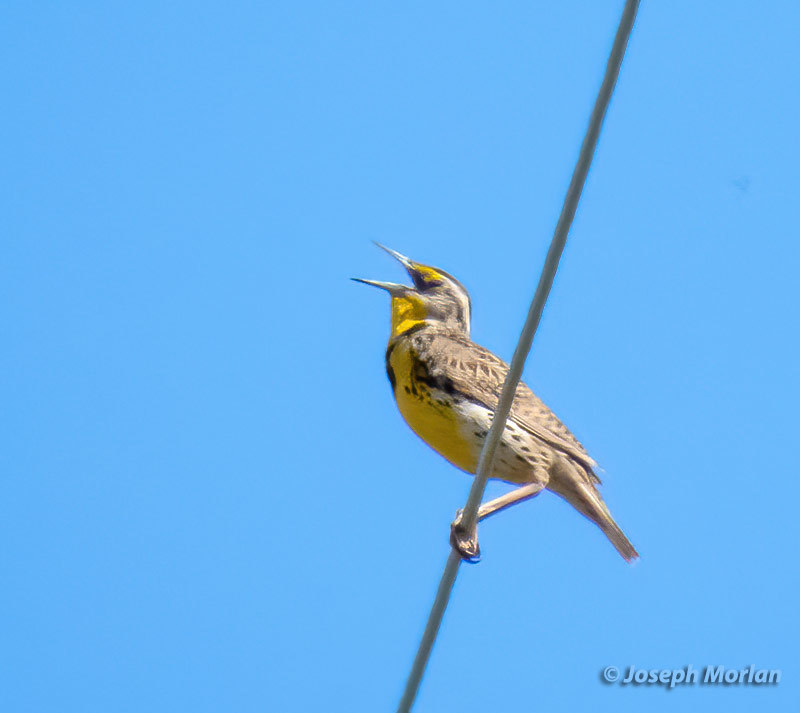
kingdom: Animalia
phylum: Chordata
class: Aves
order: Passeriformes
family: Icteridae
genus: Sturnella
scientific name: Sturnella neglecta
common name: Western meadowlark
